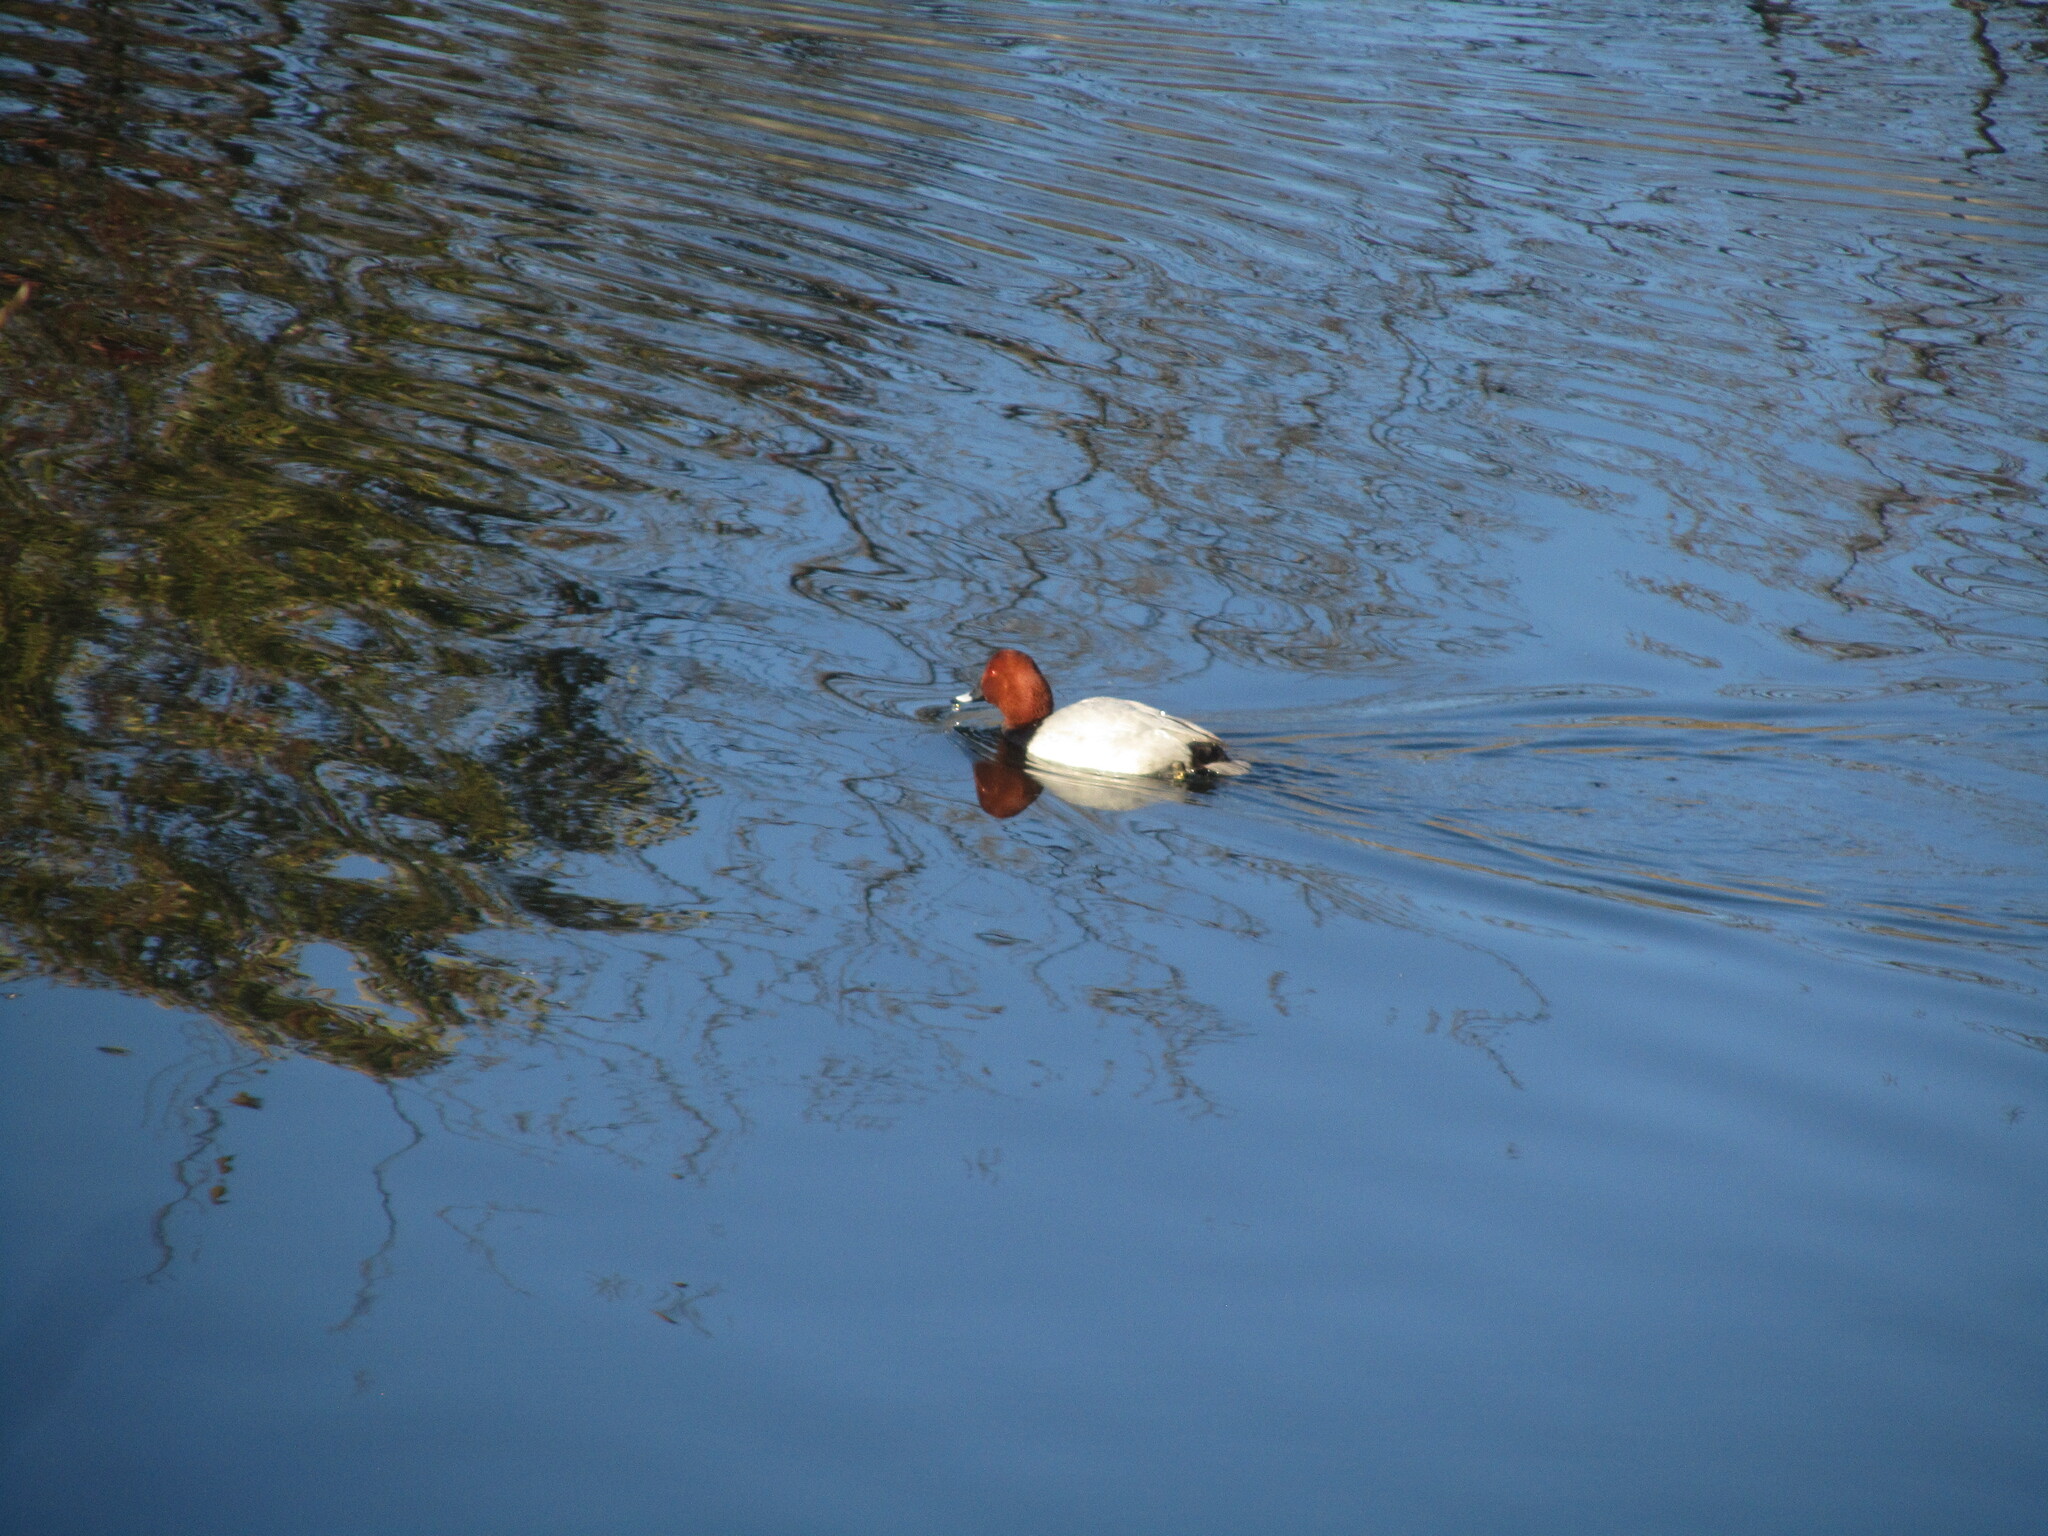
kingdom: Animalia
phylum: Chordata
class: Aves
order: Anseriformes
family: Anatidae
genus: Aythya
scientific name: Aythya ferina
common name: Common pochard
